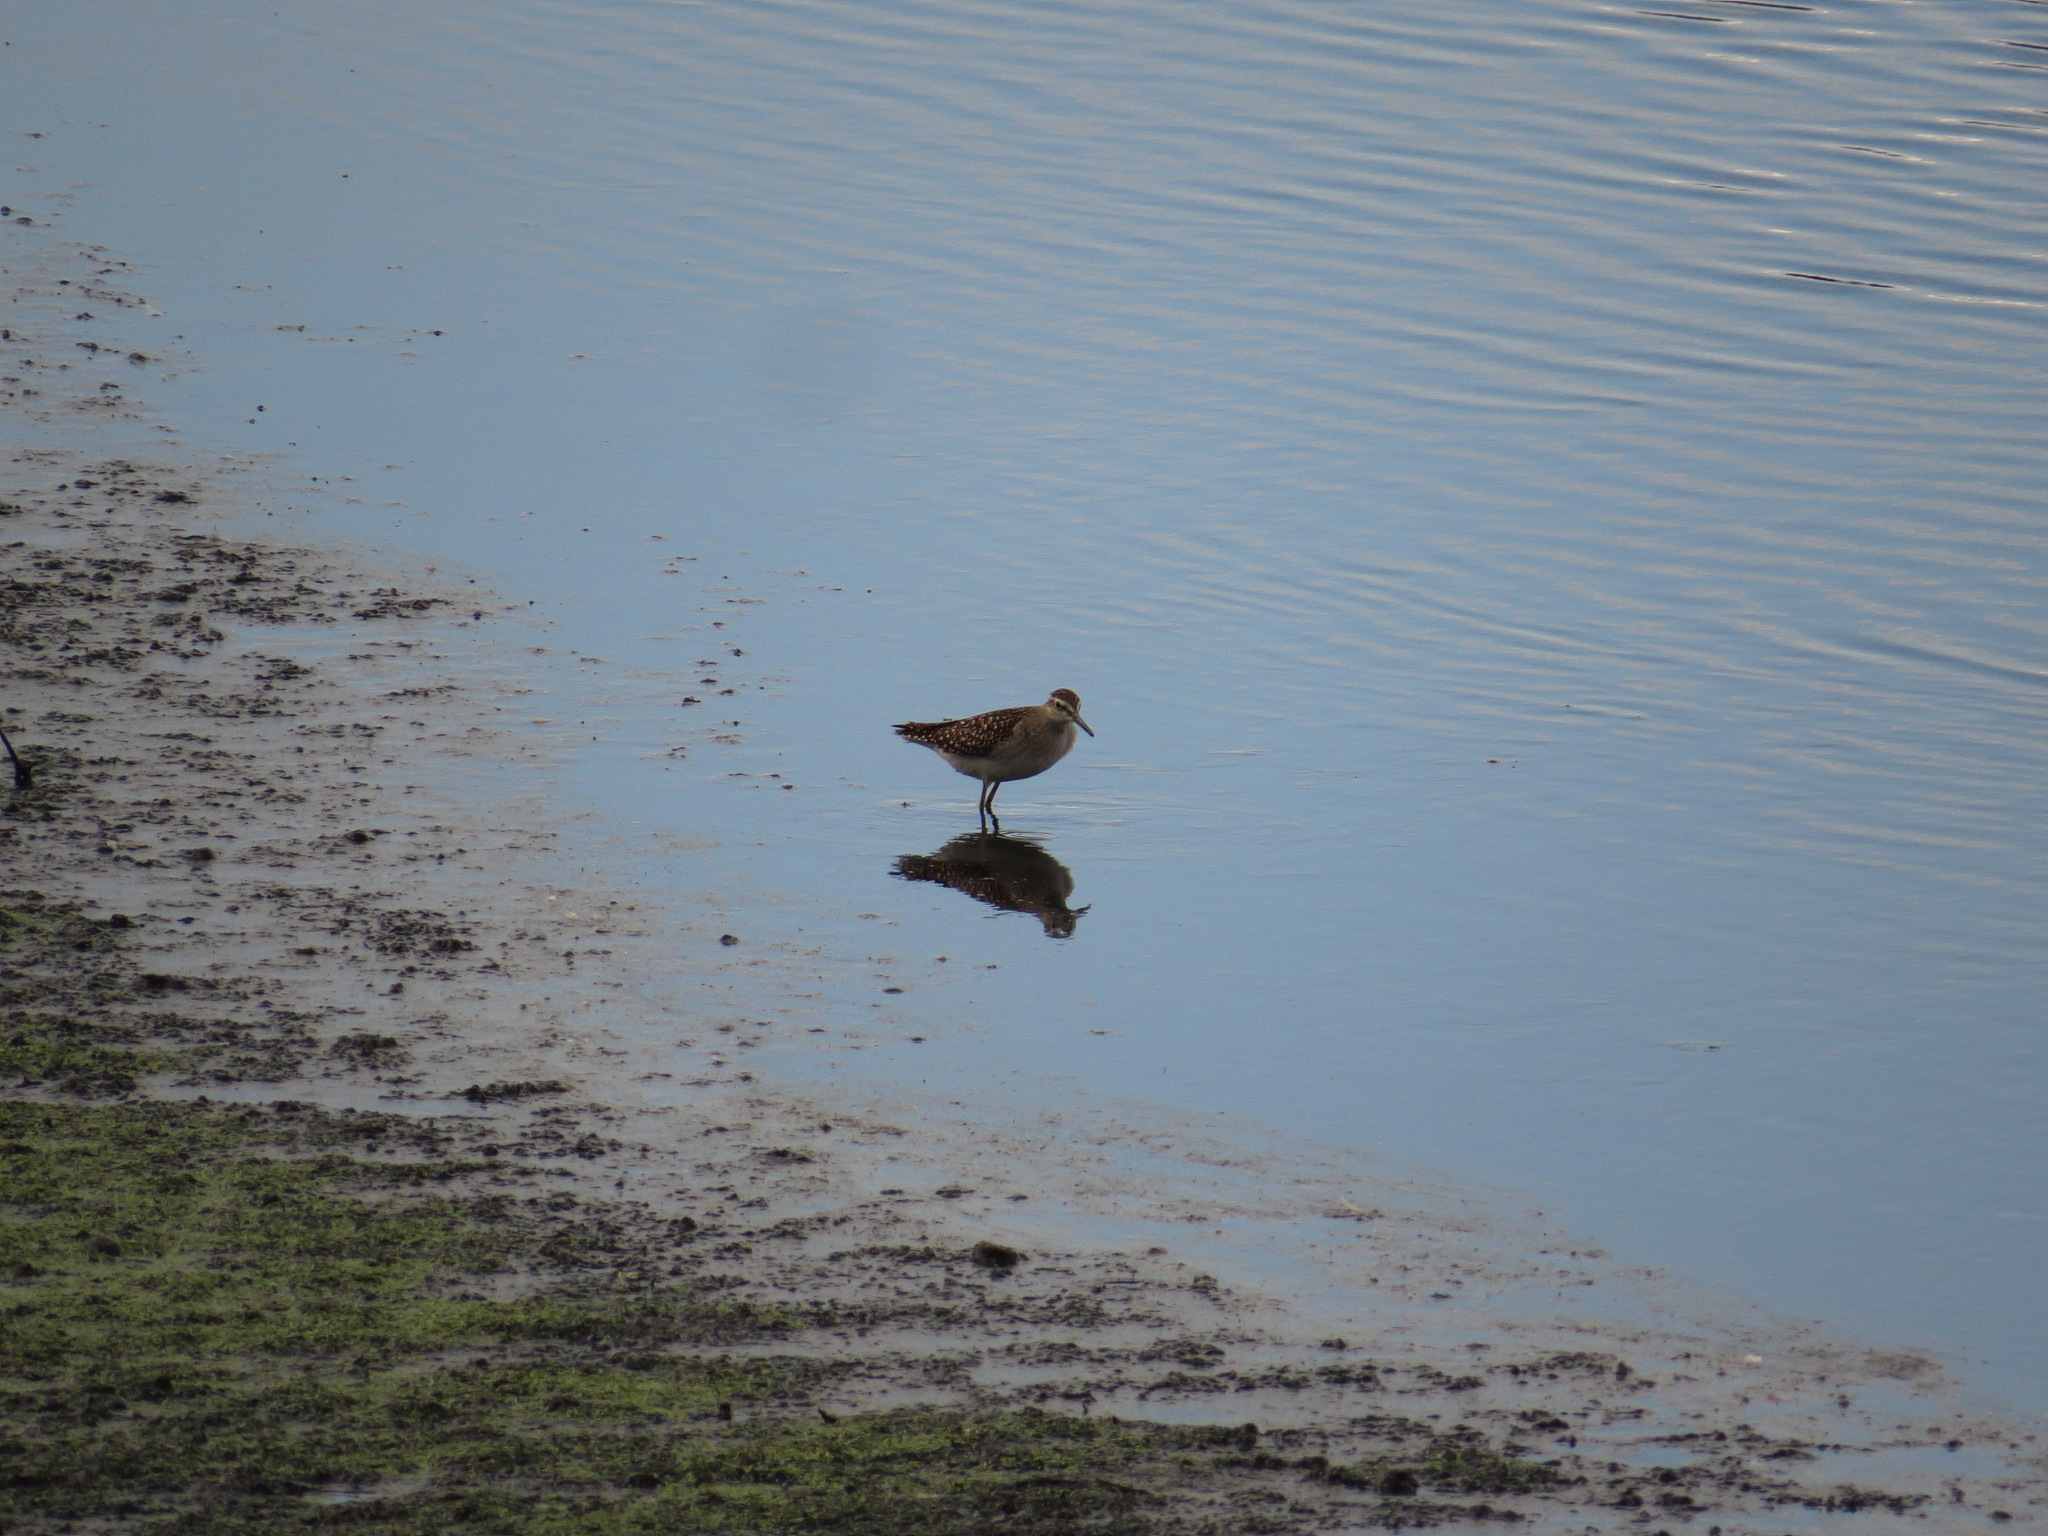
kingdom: Animalia
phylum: Chordata
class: Aves
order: Charadriiformes
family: Scolopacidae
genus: Tringa
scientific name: Tringa glareola
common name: Wood sandpiper
